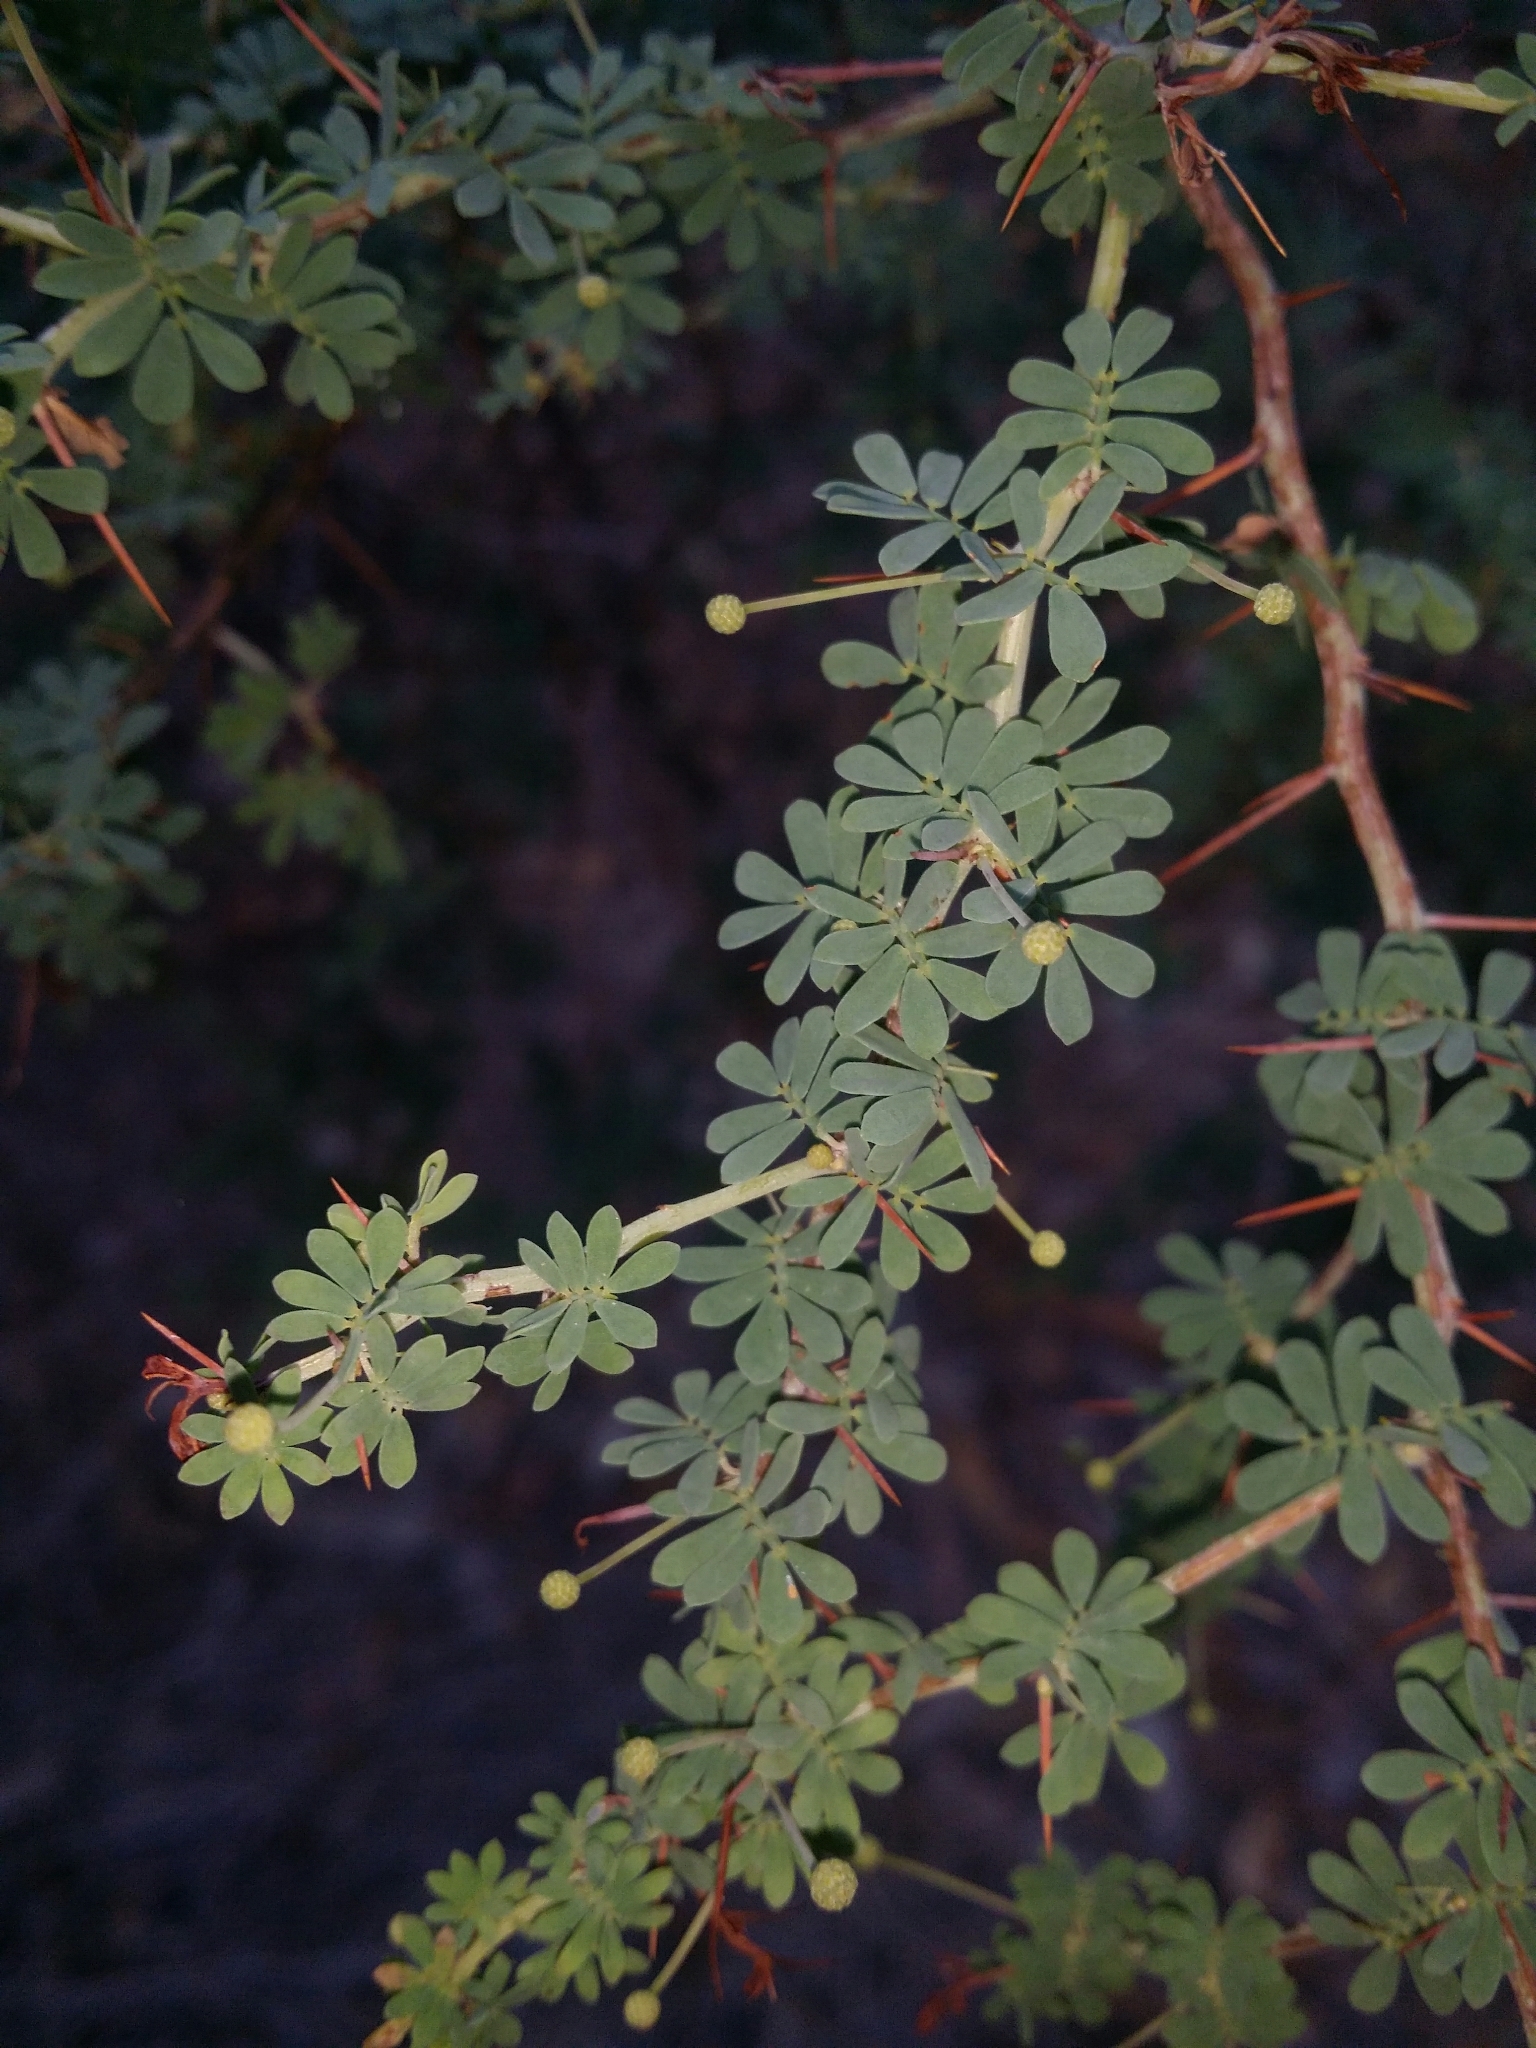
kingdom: Plantae
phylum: Tracheophyta
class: Magnoliopsida
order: Fabales
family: Fabaceae
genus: Acacia
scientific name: Acacia pulchella
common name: Prickly moses
